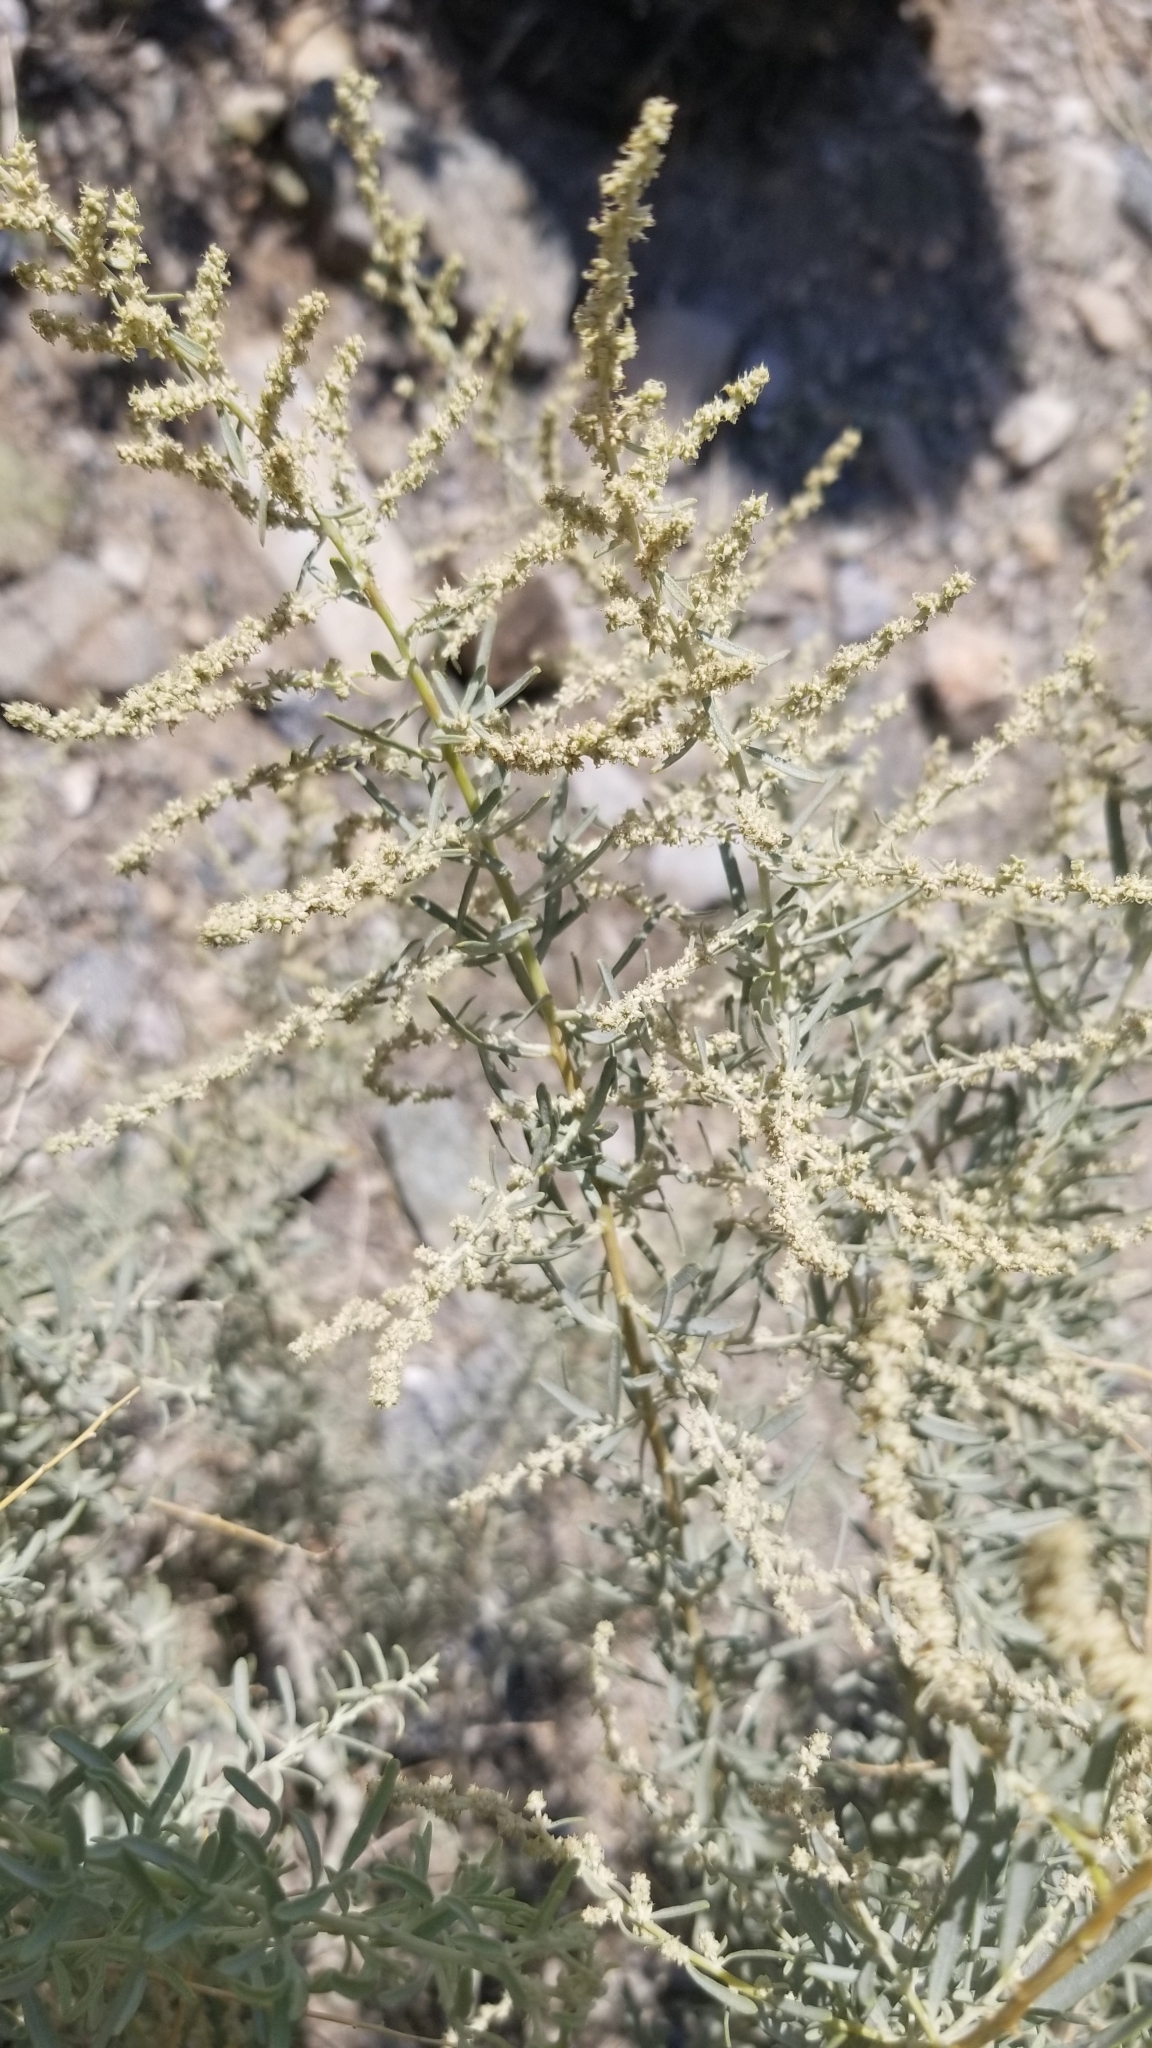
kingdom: Plantae
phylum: Tracheophyta
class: Magnoliopsida
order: Caryophyllales
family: Amaranthaceae
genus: Atriplex
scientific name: Atriplex polycarpa
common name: Desert saltbush
